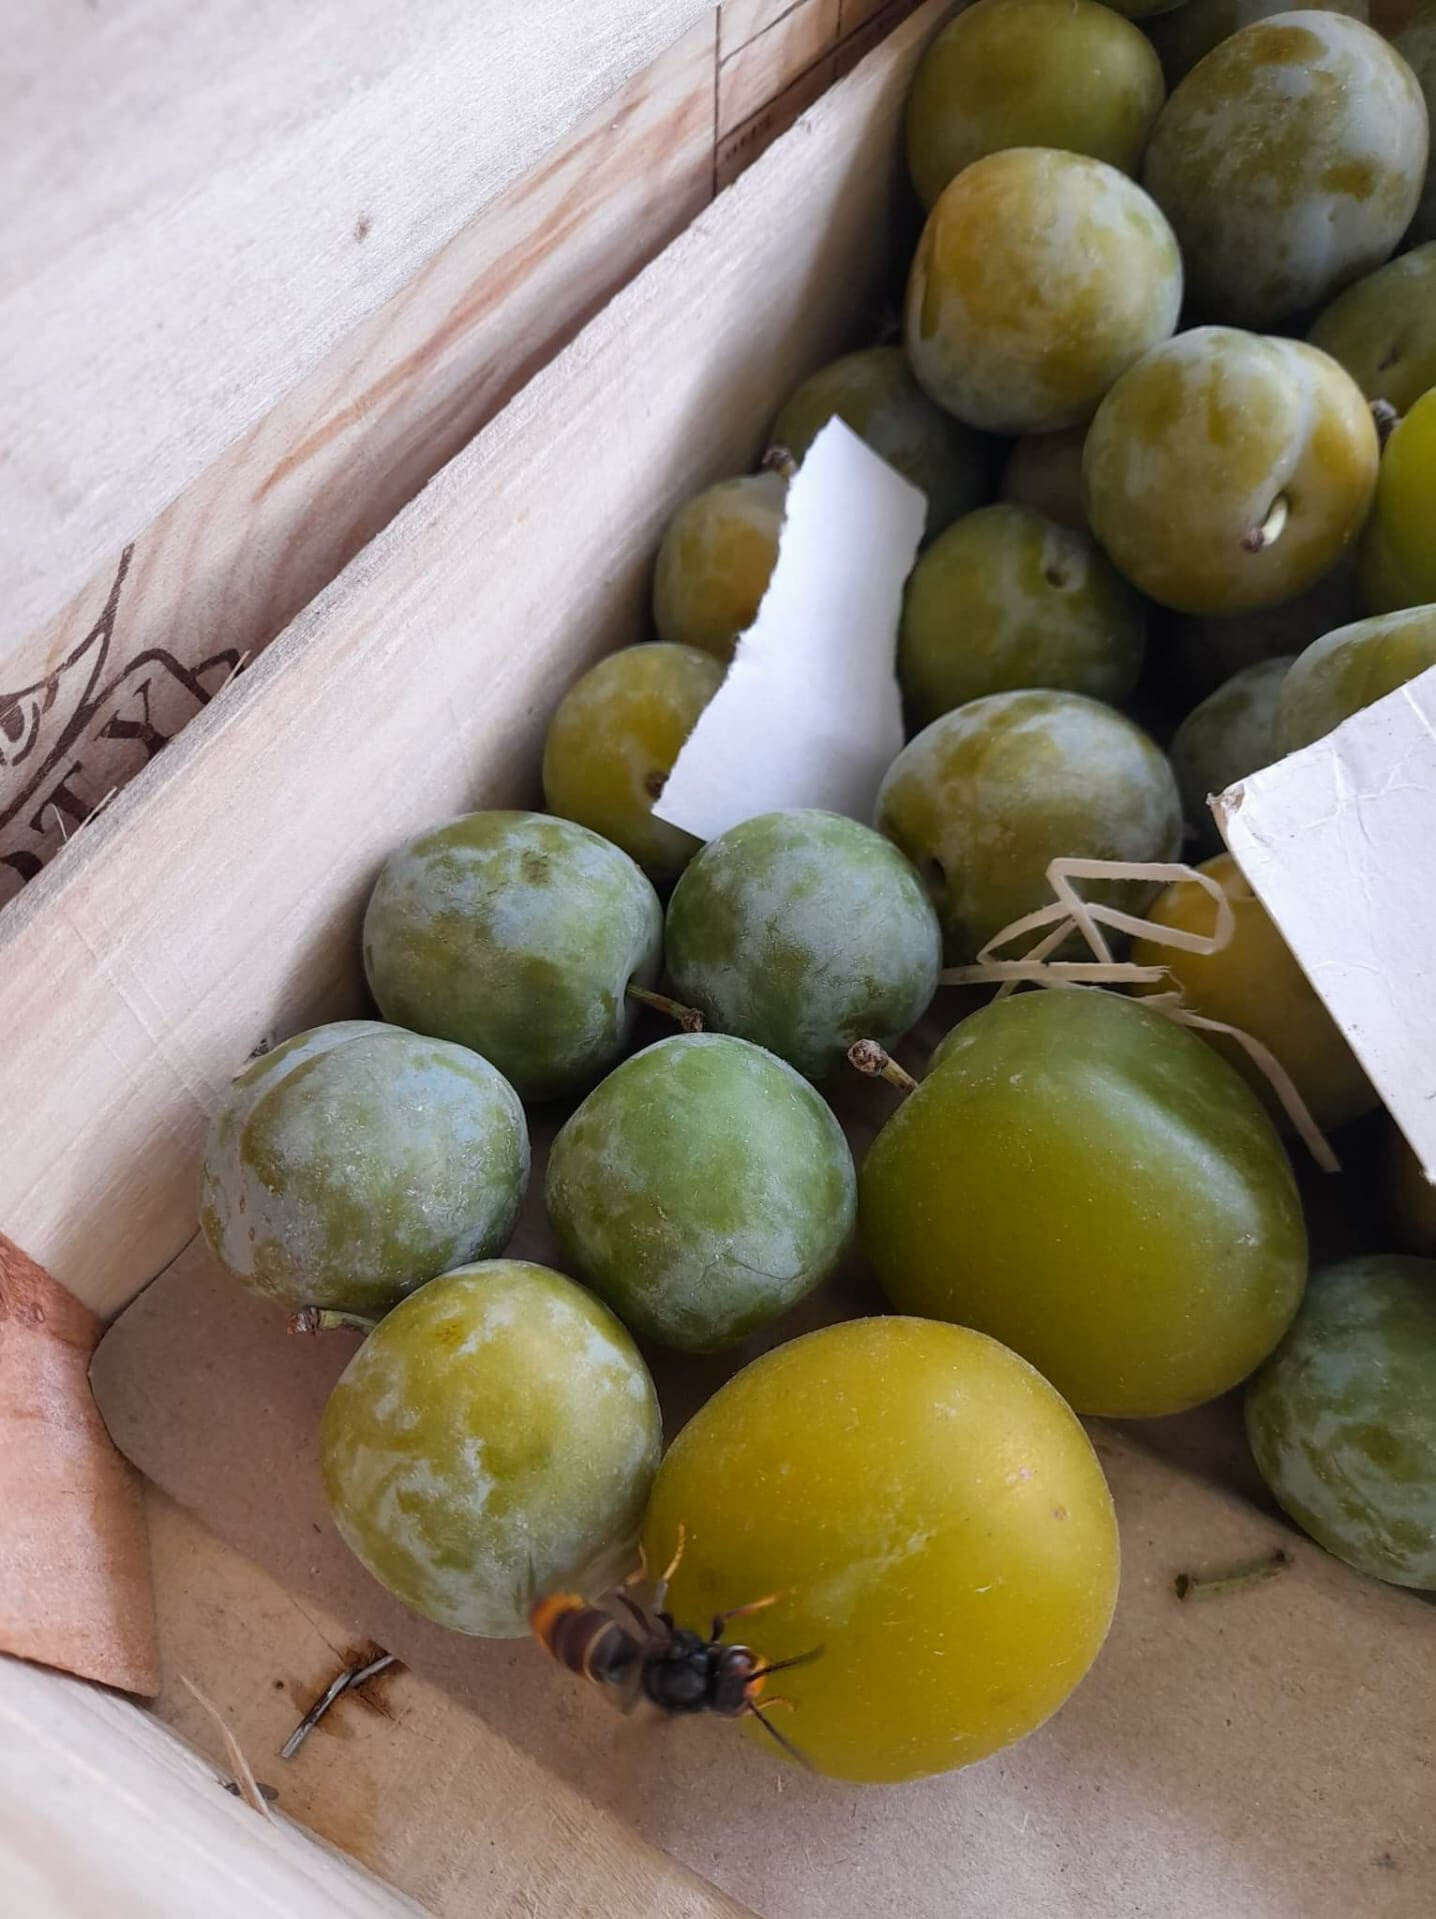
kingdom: Animalia
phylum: Arthropoda
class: Insecta
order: Hymenoptera
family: Vespidae
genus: Vespa
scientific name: Vespa velutina
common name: Asian hornet
